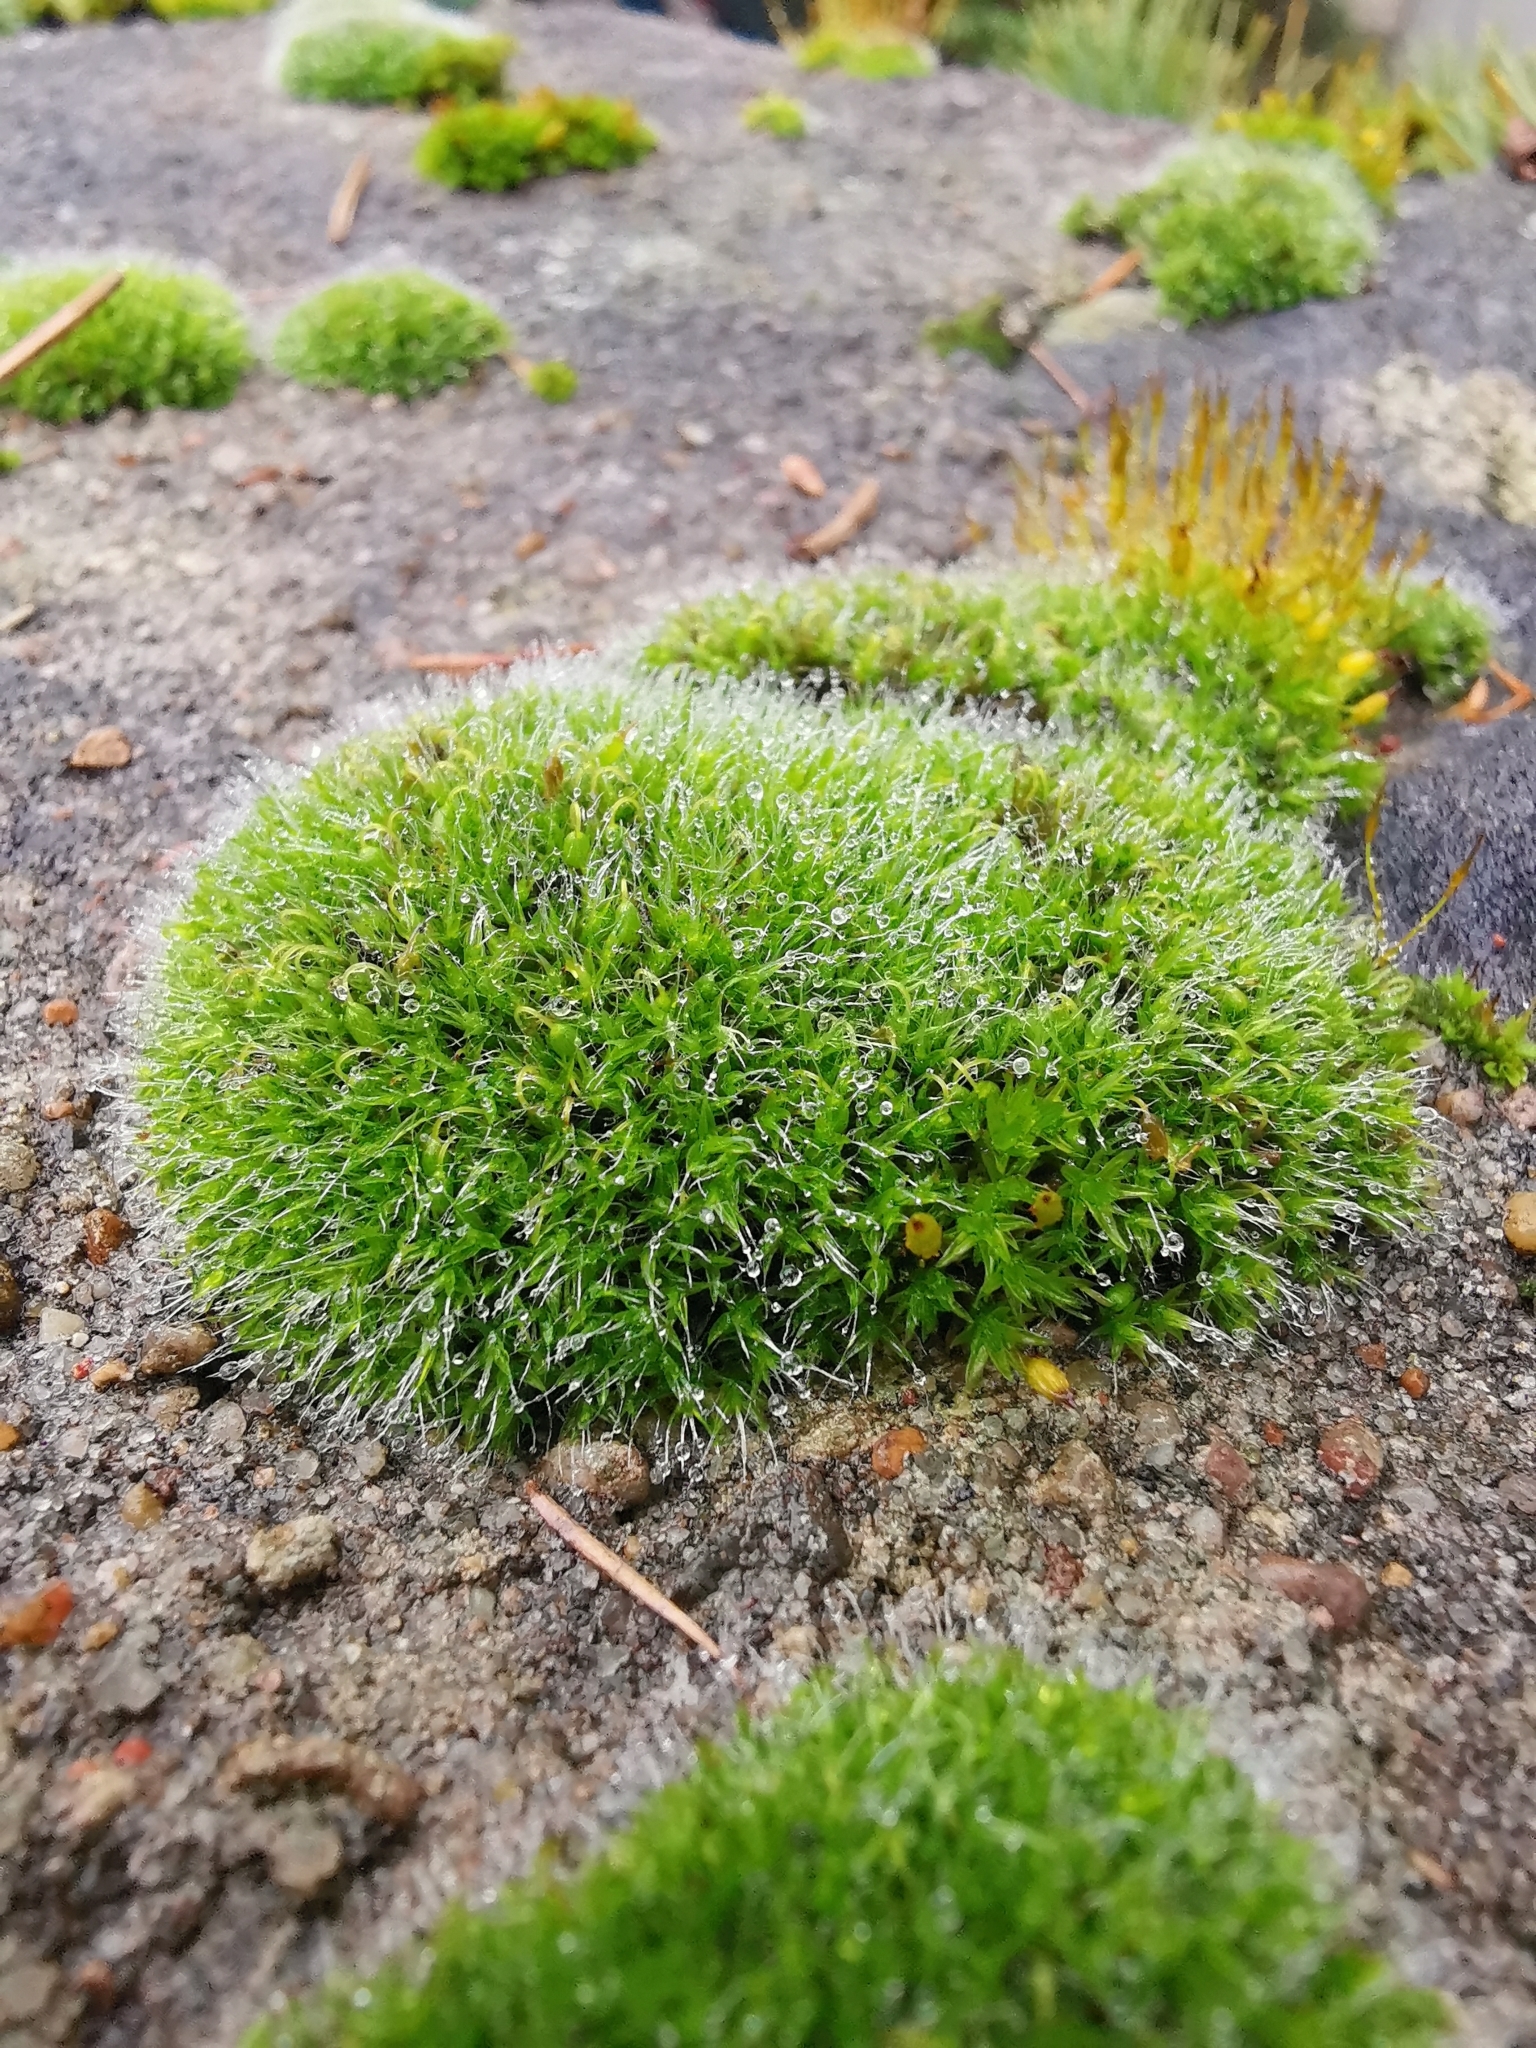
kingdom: Plantae
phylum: Bryophyta
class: Bryopsida
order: Grimmiales
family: Grimmiaceae
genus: Grimmia
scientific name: Grimmia pulvinata
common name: Grey-cushioned grimmia
